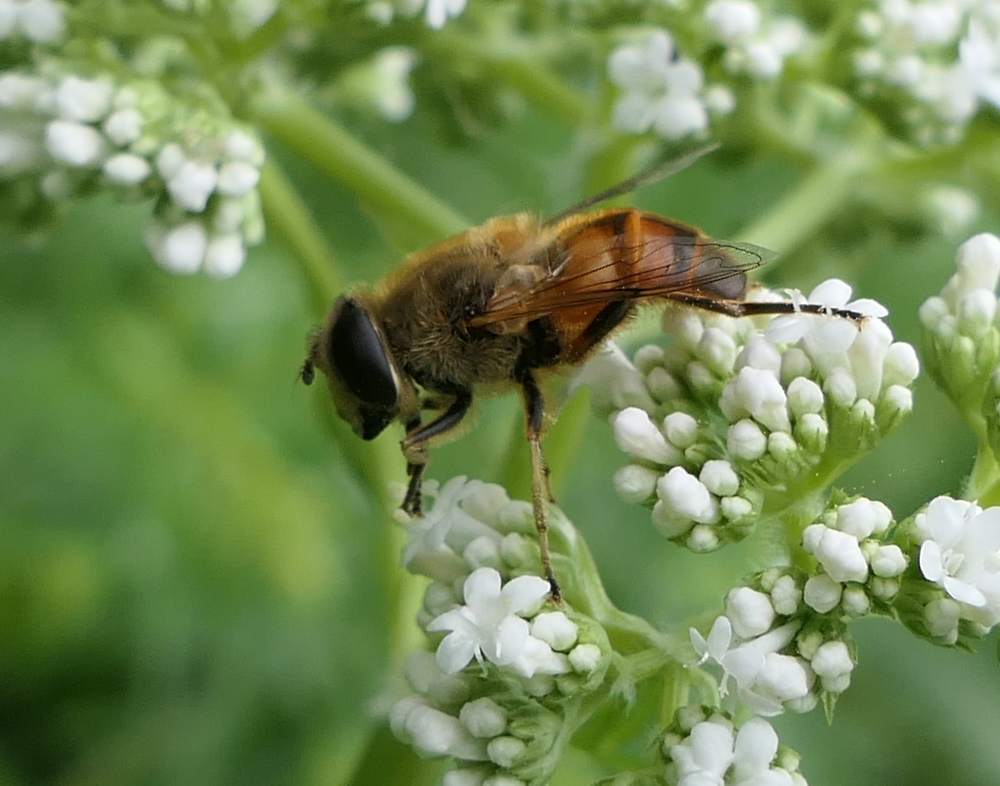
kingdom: Animalia
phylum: Arthropoda
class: Insecta
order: Diptera
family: Syrphidae
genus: Eristalis
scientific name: Eristalis tenax
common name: Drone fly
